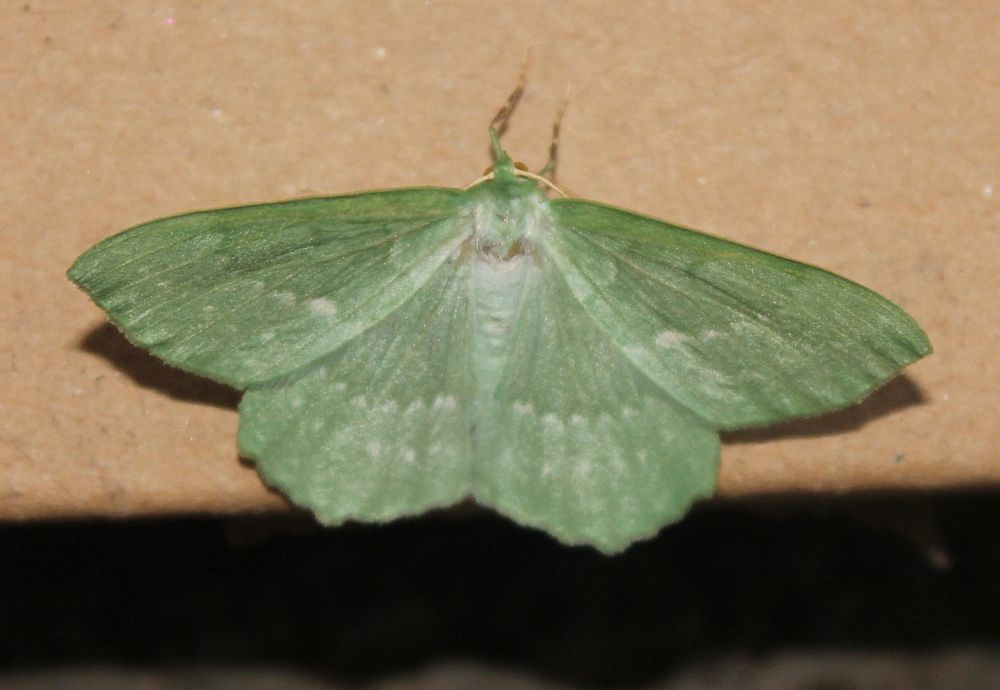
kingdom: Animalia
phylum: Arthropoda
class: Insecta
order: Lepidoptera
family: Geometridae
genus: Geometra
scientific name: Geometra papilionaria
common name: Large emerald
